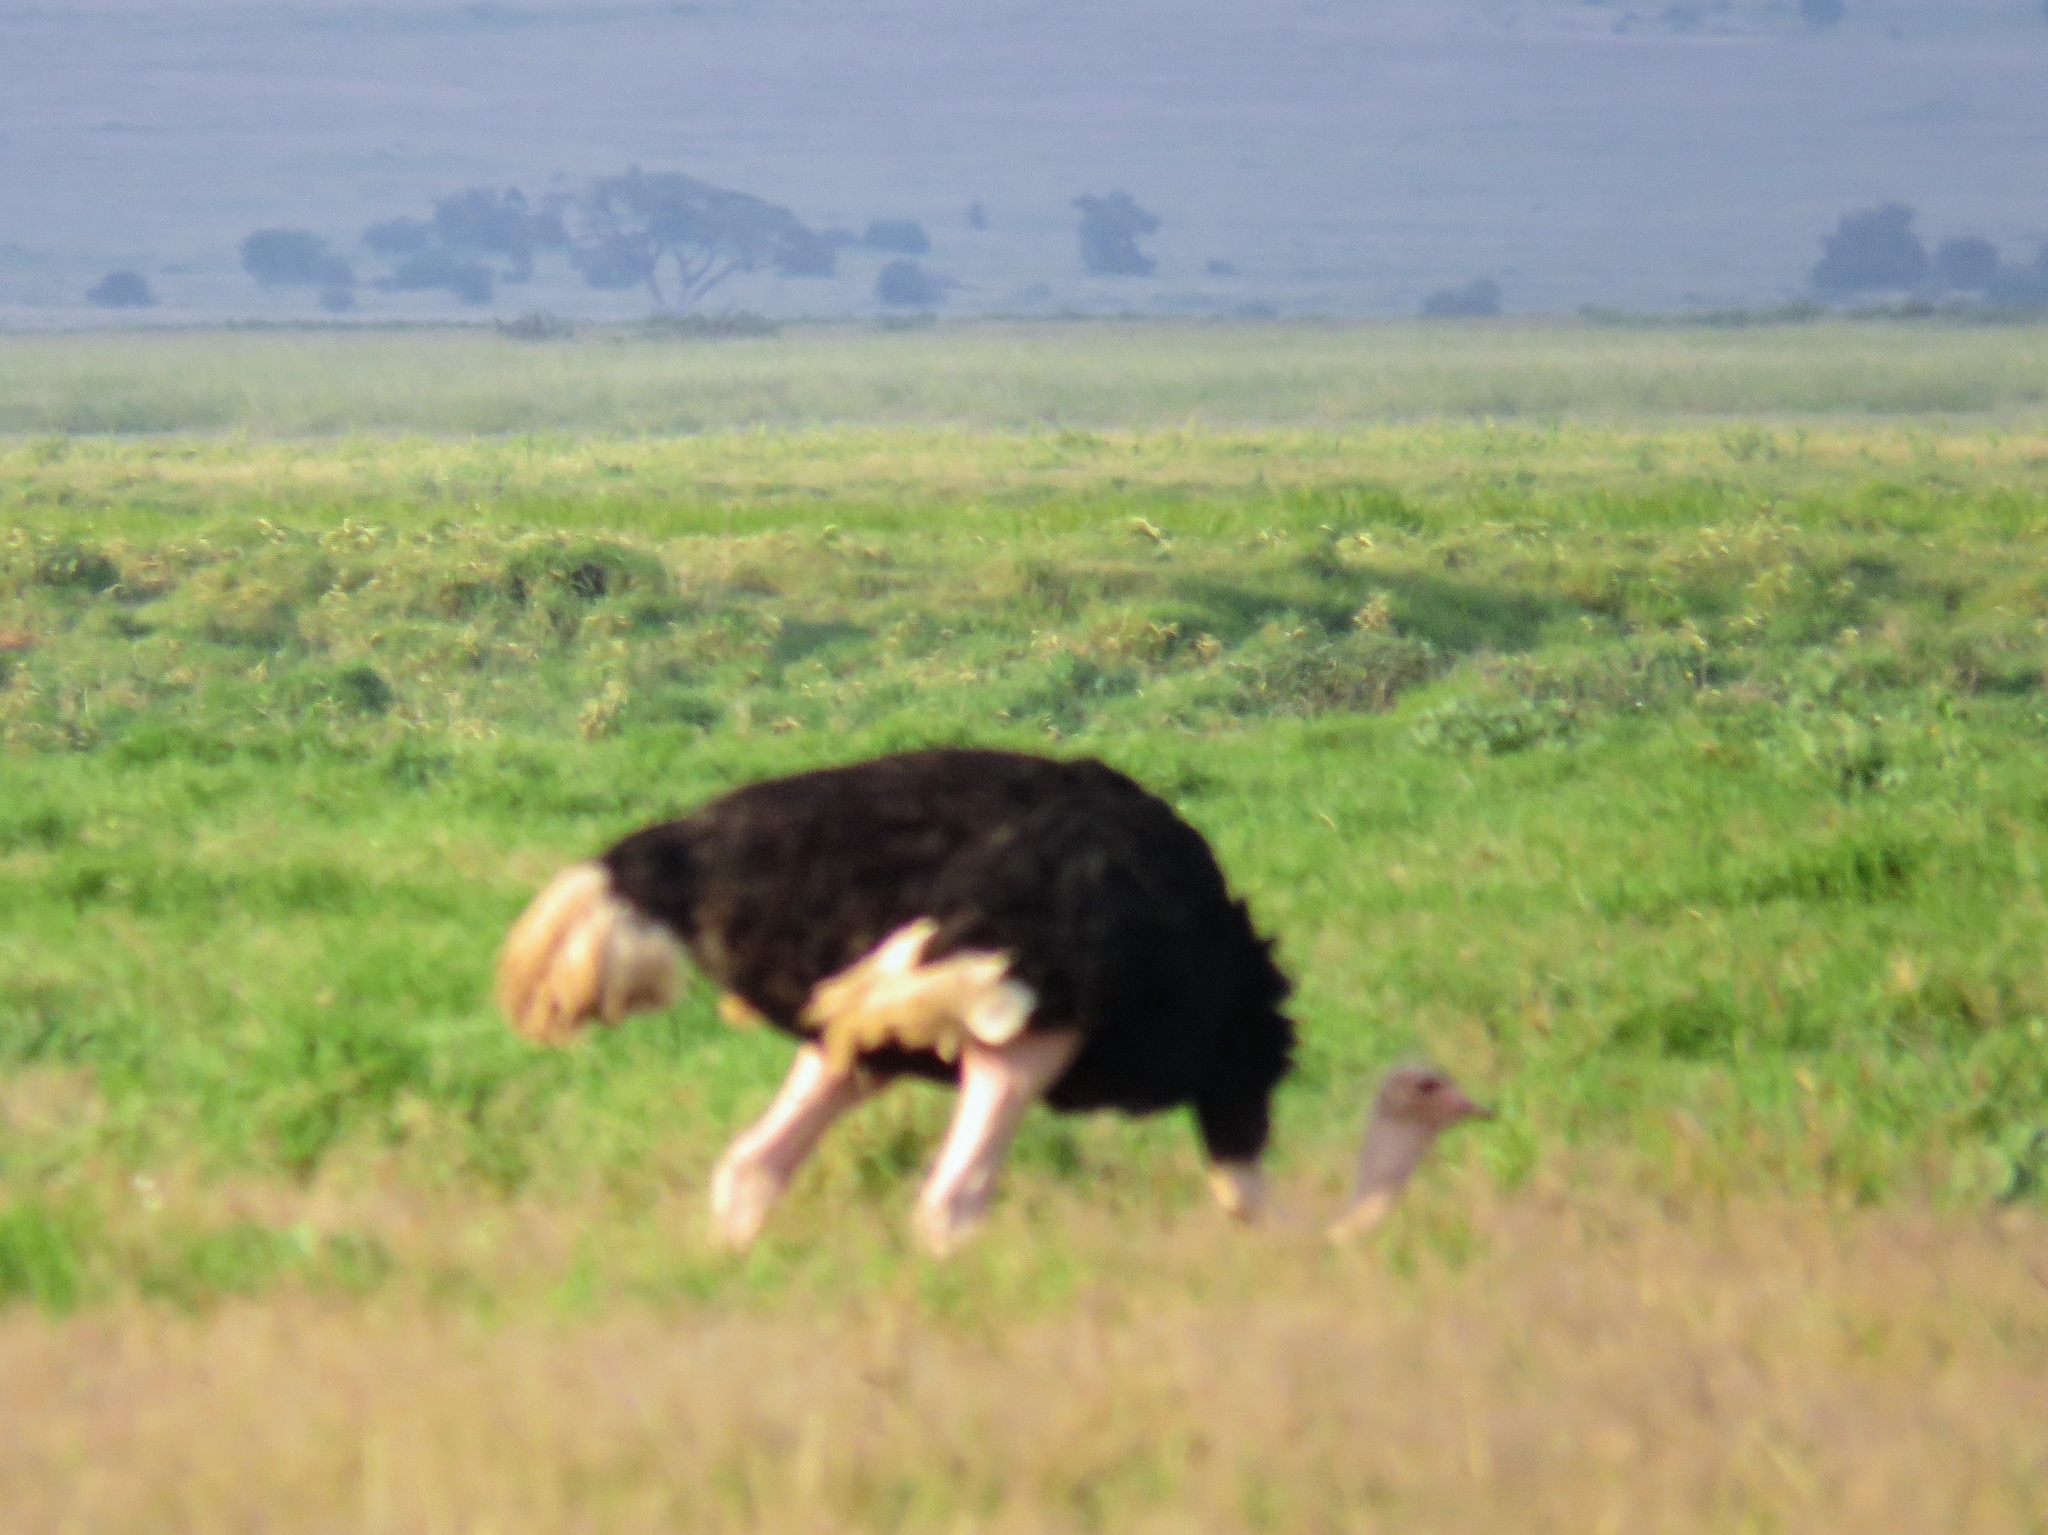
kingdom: Animalia
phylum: Chordata
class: Aves
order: Struthioniformes
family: Struthionidae
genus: Struthio
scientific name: Struthio camelus
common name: Common ostrich
